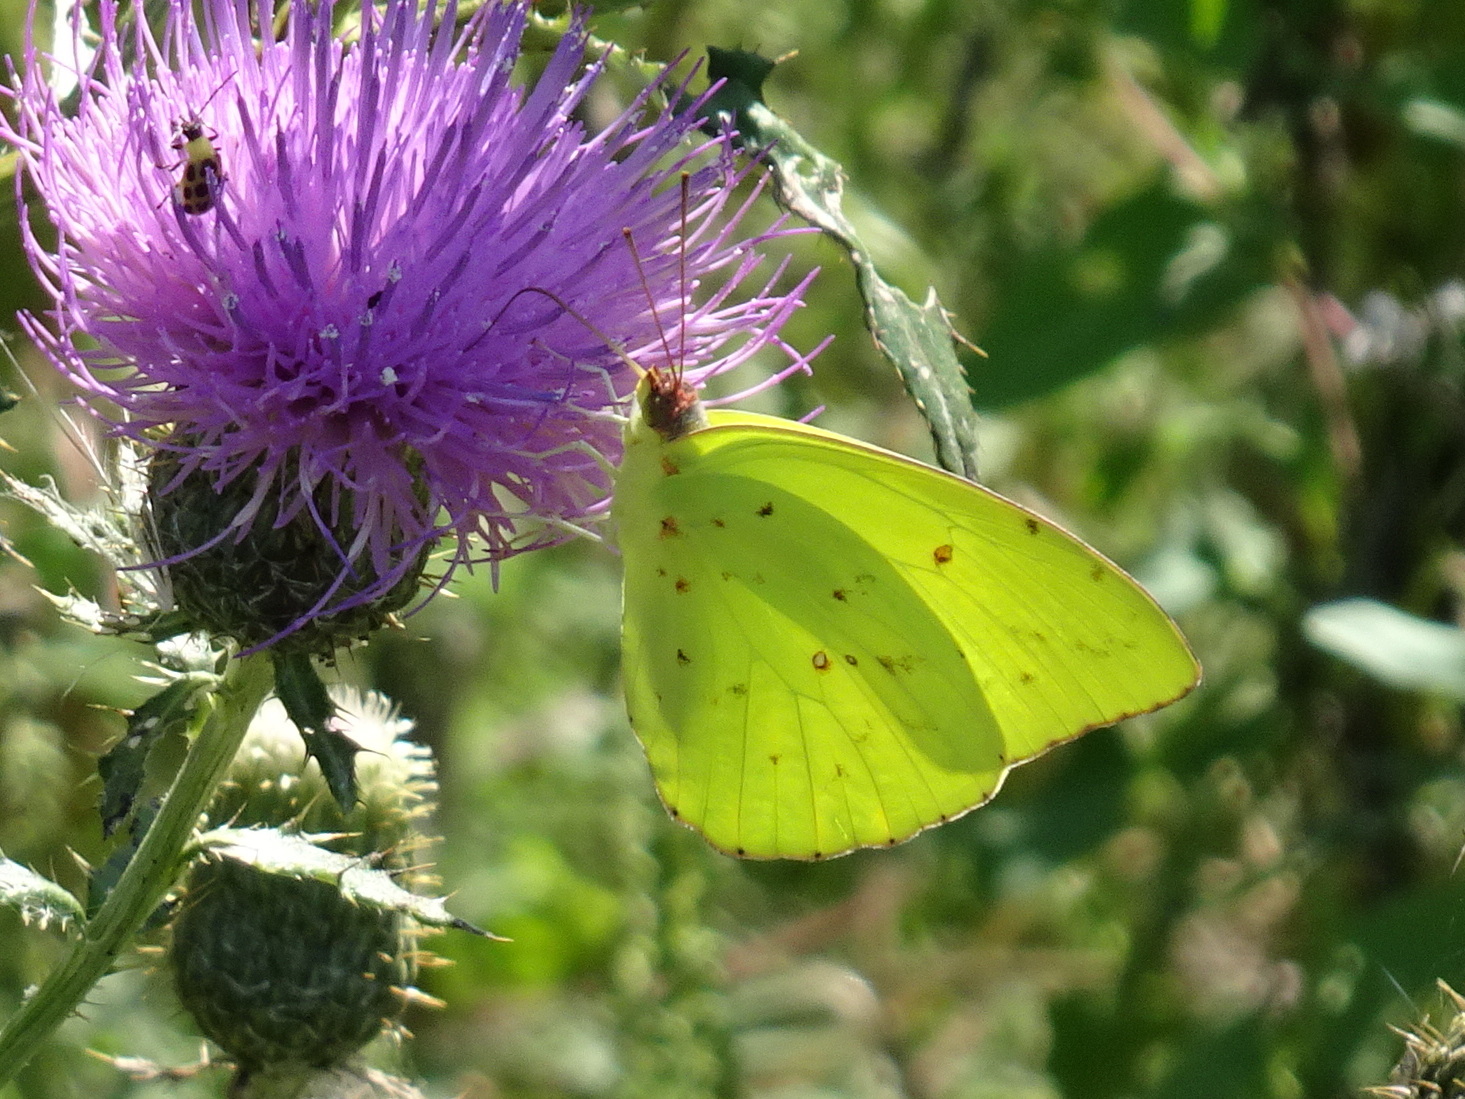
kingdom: Animalia
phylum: Arthropoda
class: Insecta
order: Lepidoptera
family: Pieridae
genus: Phoebis
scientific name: Phoebis sennae
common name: Cloudless sulphur
